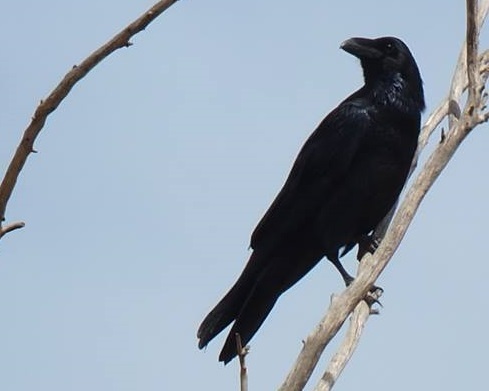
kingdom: Animalia
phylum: Chordata
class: Aves
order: Passeriformes
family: Corvidae
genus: Corvus
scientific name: Corvus corax
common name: Common raven
